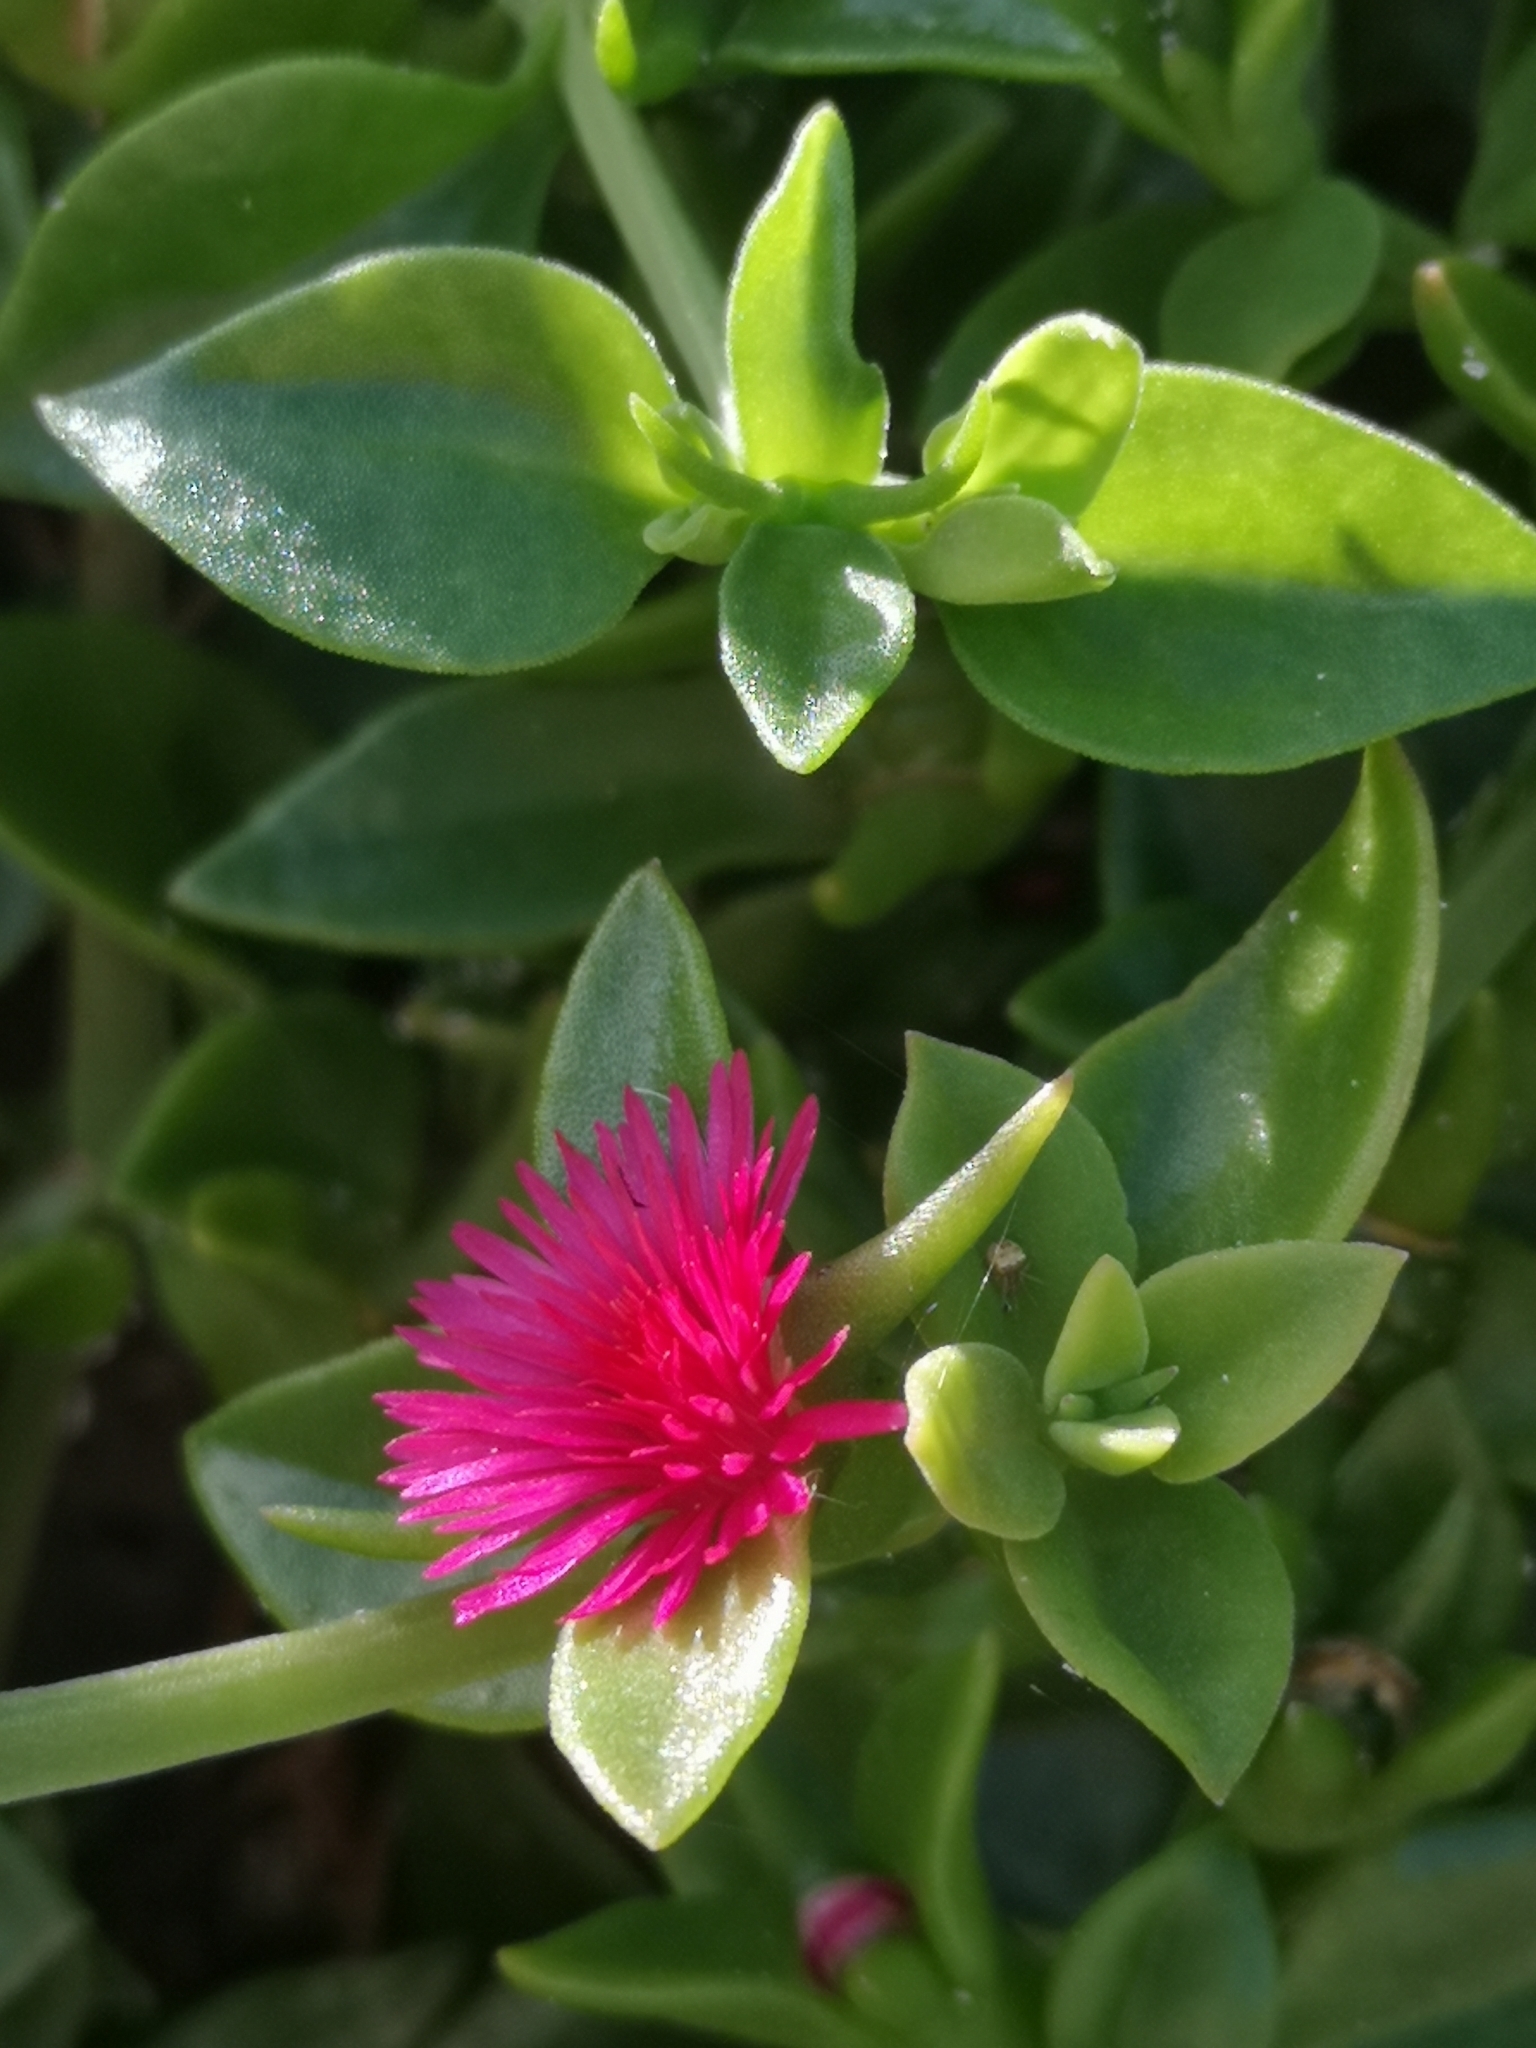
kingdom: Plantae
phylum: Tracheophyta
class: Magnoliopsida
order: Caryophyllales
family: Aizoaceae
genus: Mesembryanthemum
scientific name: Mesembryanthemum cordifolium
